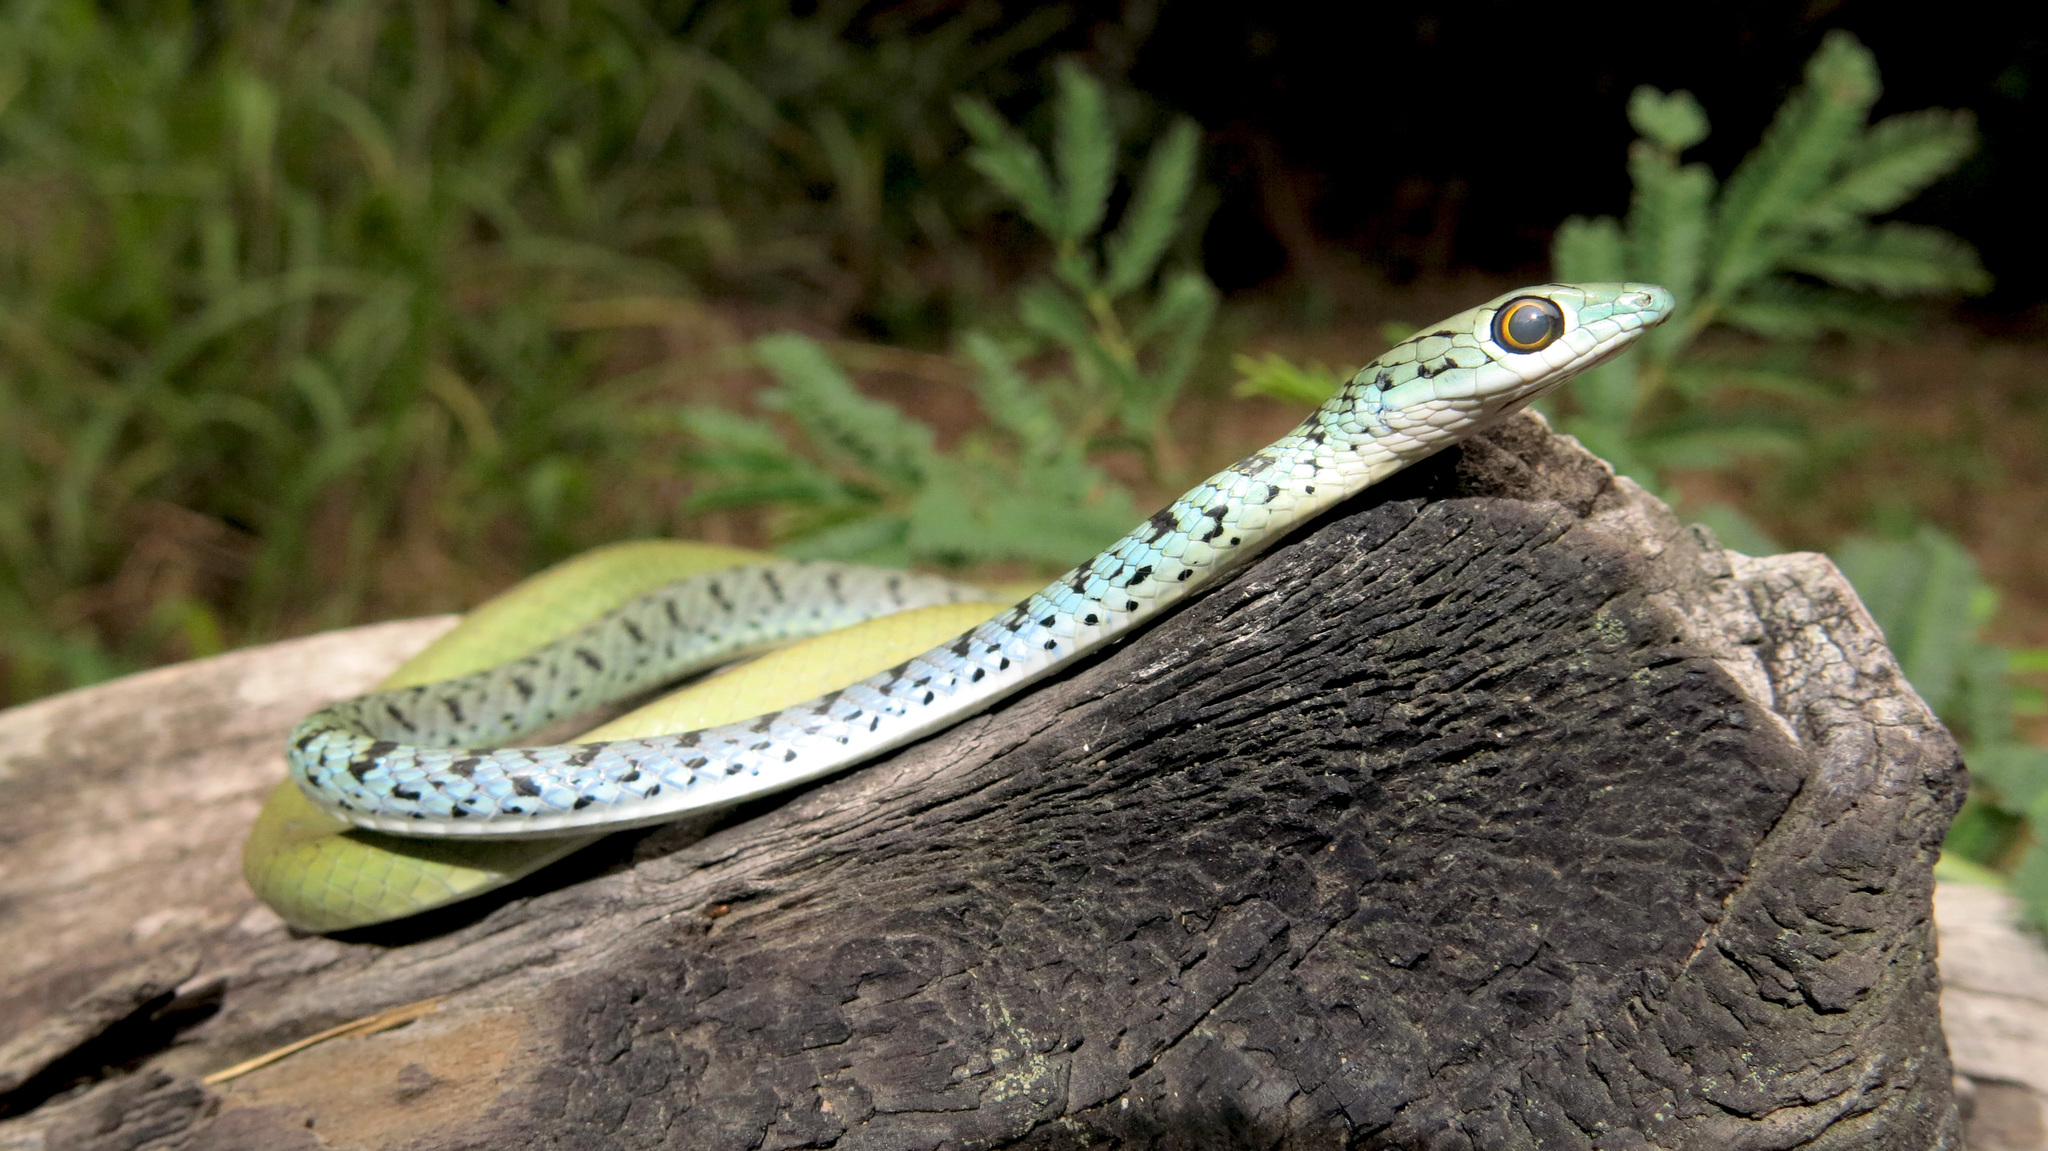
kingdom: Animalia
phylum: Chordata
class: Squamata
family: Colubridae
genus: Philothamnus
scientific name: Philothamnus semivariegatus
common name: Spotted bush snake
